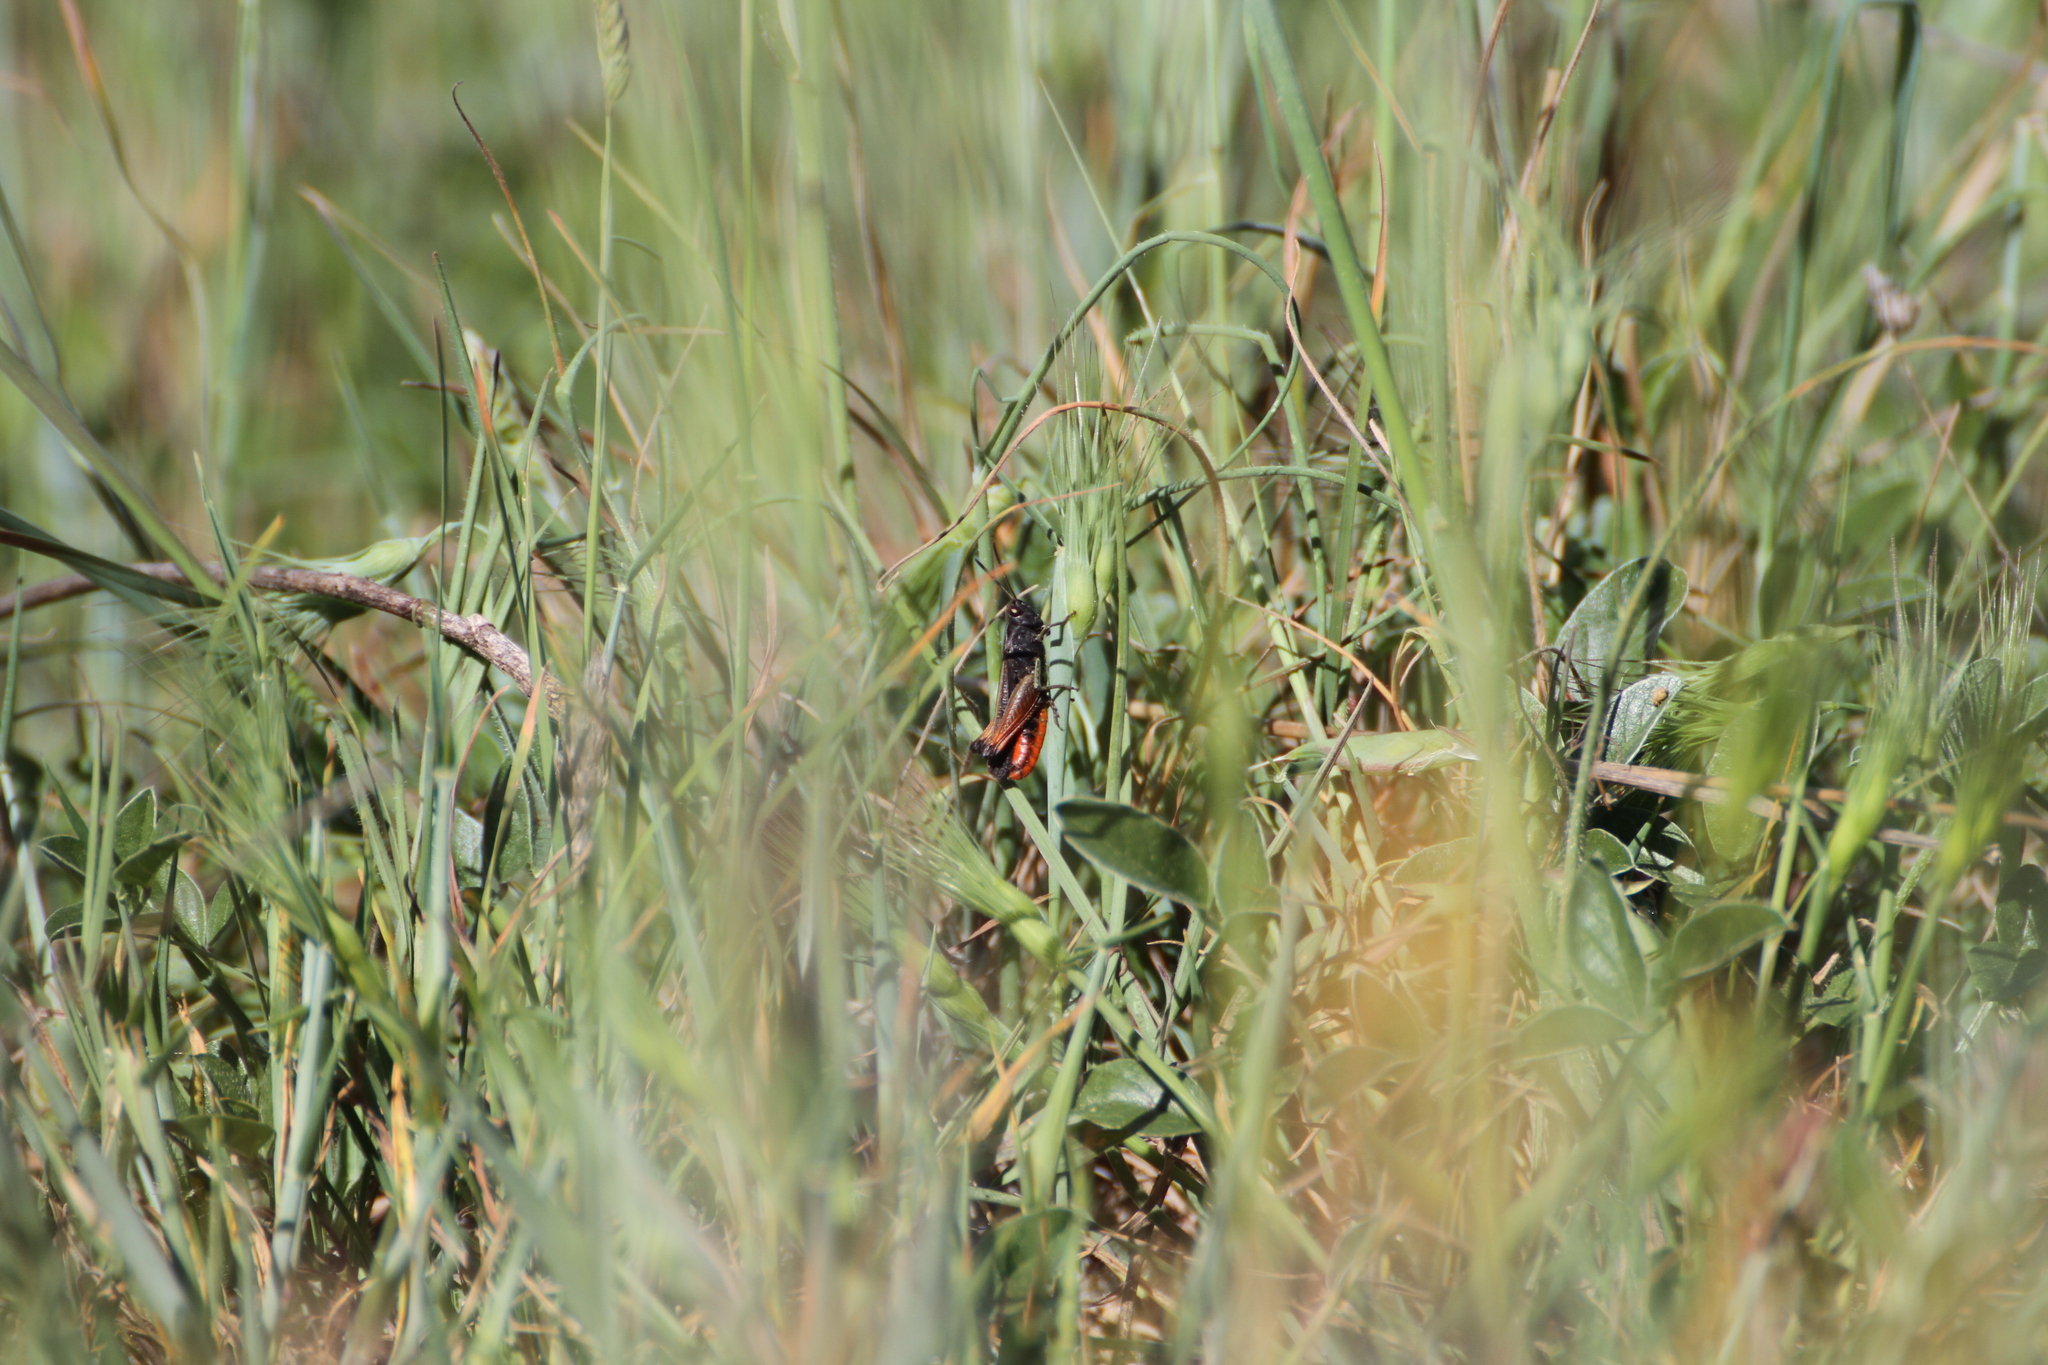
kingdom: Animalia
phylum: Arthropoda
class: Insecta
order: Orthoptera
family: Acrididae
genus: Omocestus
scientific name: Omocestus rufipes
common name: Woodland grasshopper
